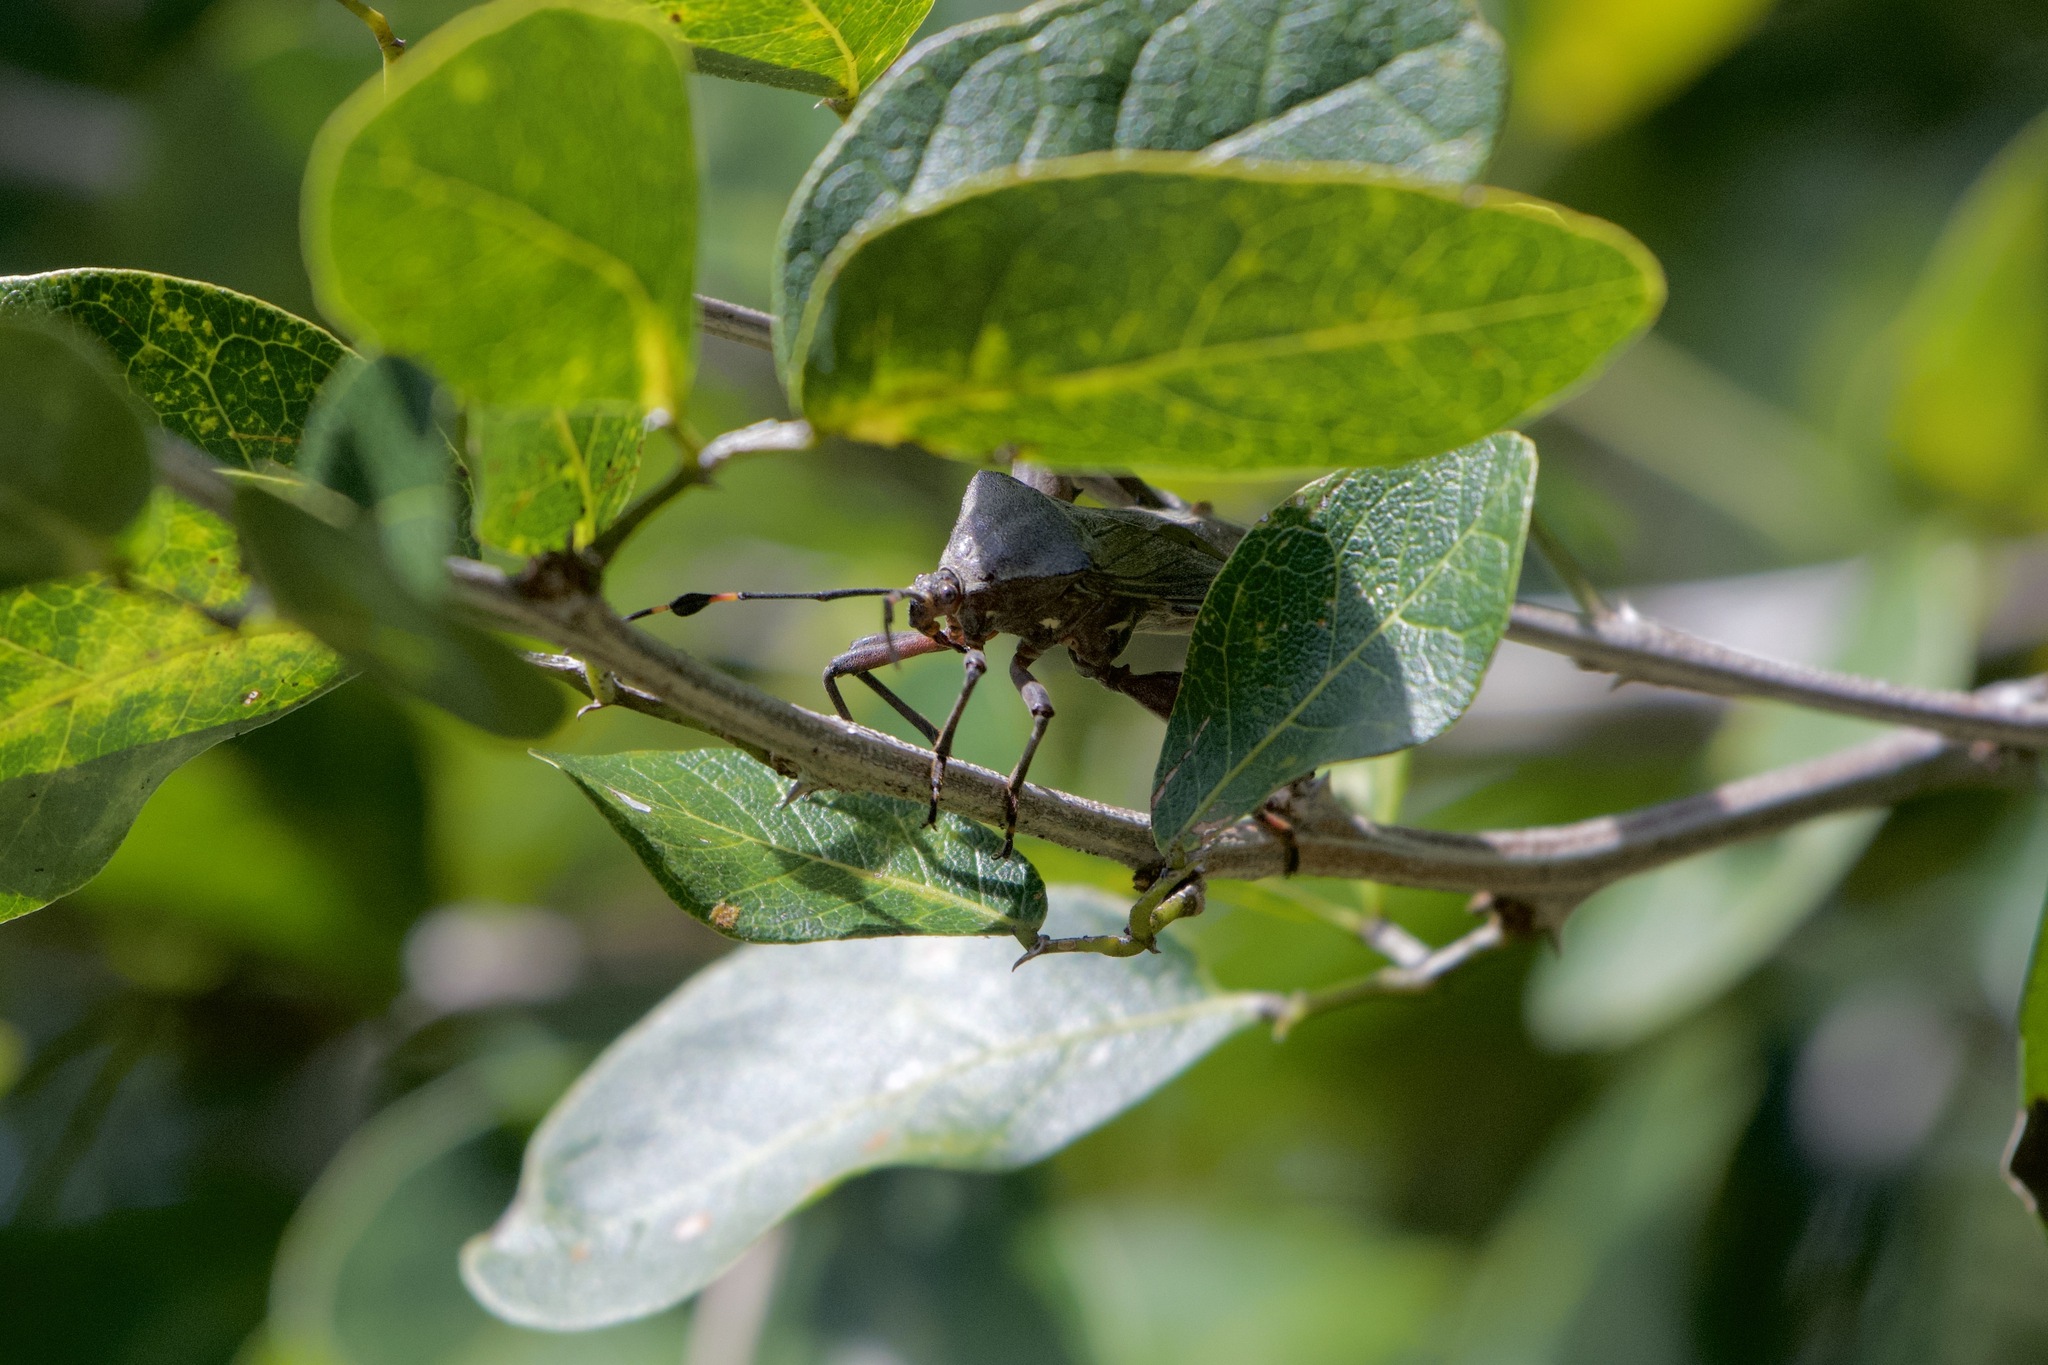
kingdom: Animalia
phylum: Arthropoda
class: Insecta
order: Hemiptera
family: Coreidae
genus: Pachylis
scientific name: Pachylis nervosus
